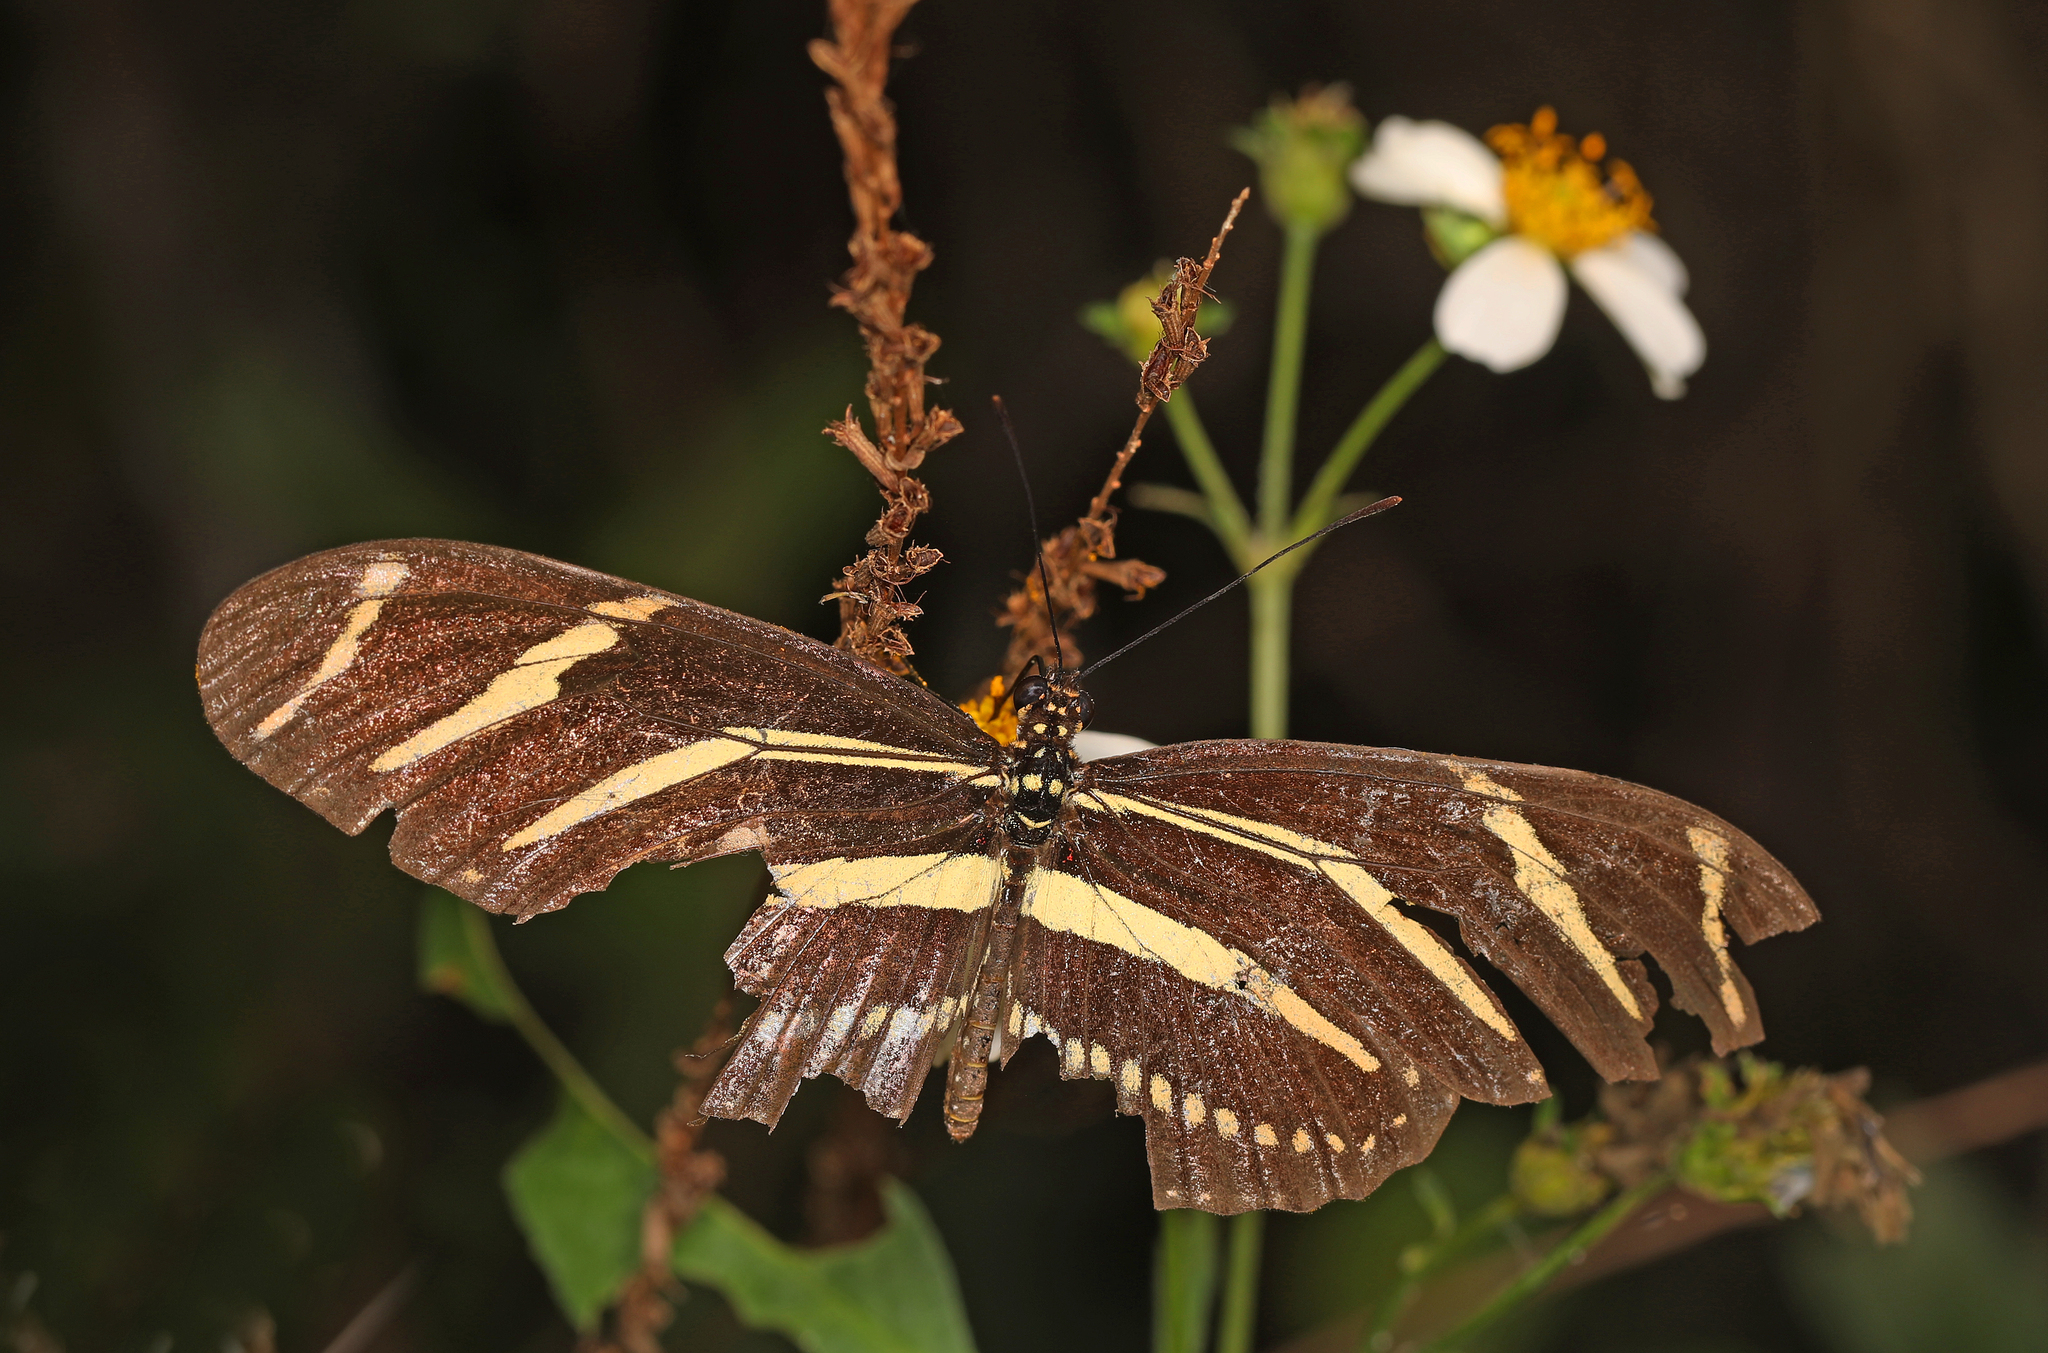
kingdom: Animalia
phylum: Arthropoda
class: Insecta
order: Lepidoptera
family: Nymphalidae
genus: Heliconius
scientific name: Heliconius charithonia
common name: Zebra long wing
